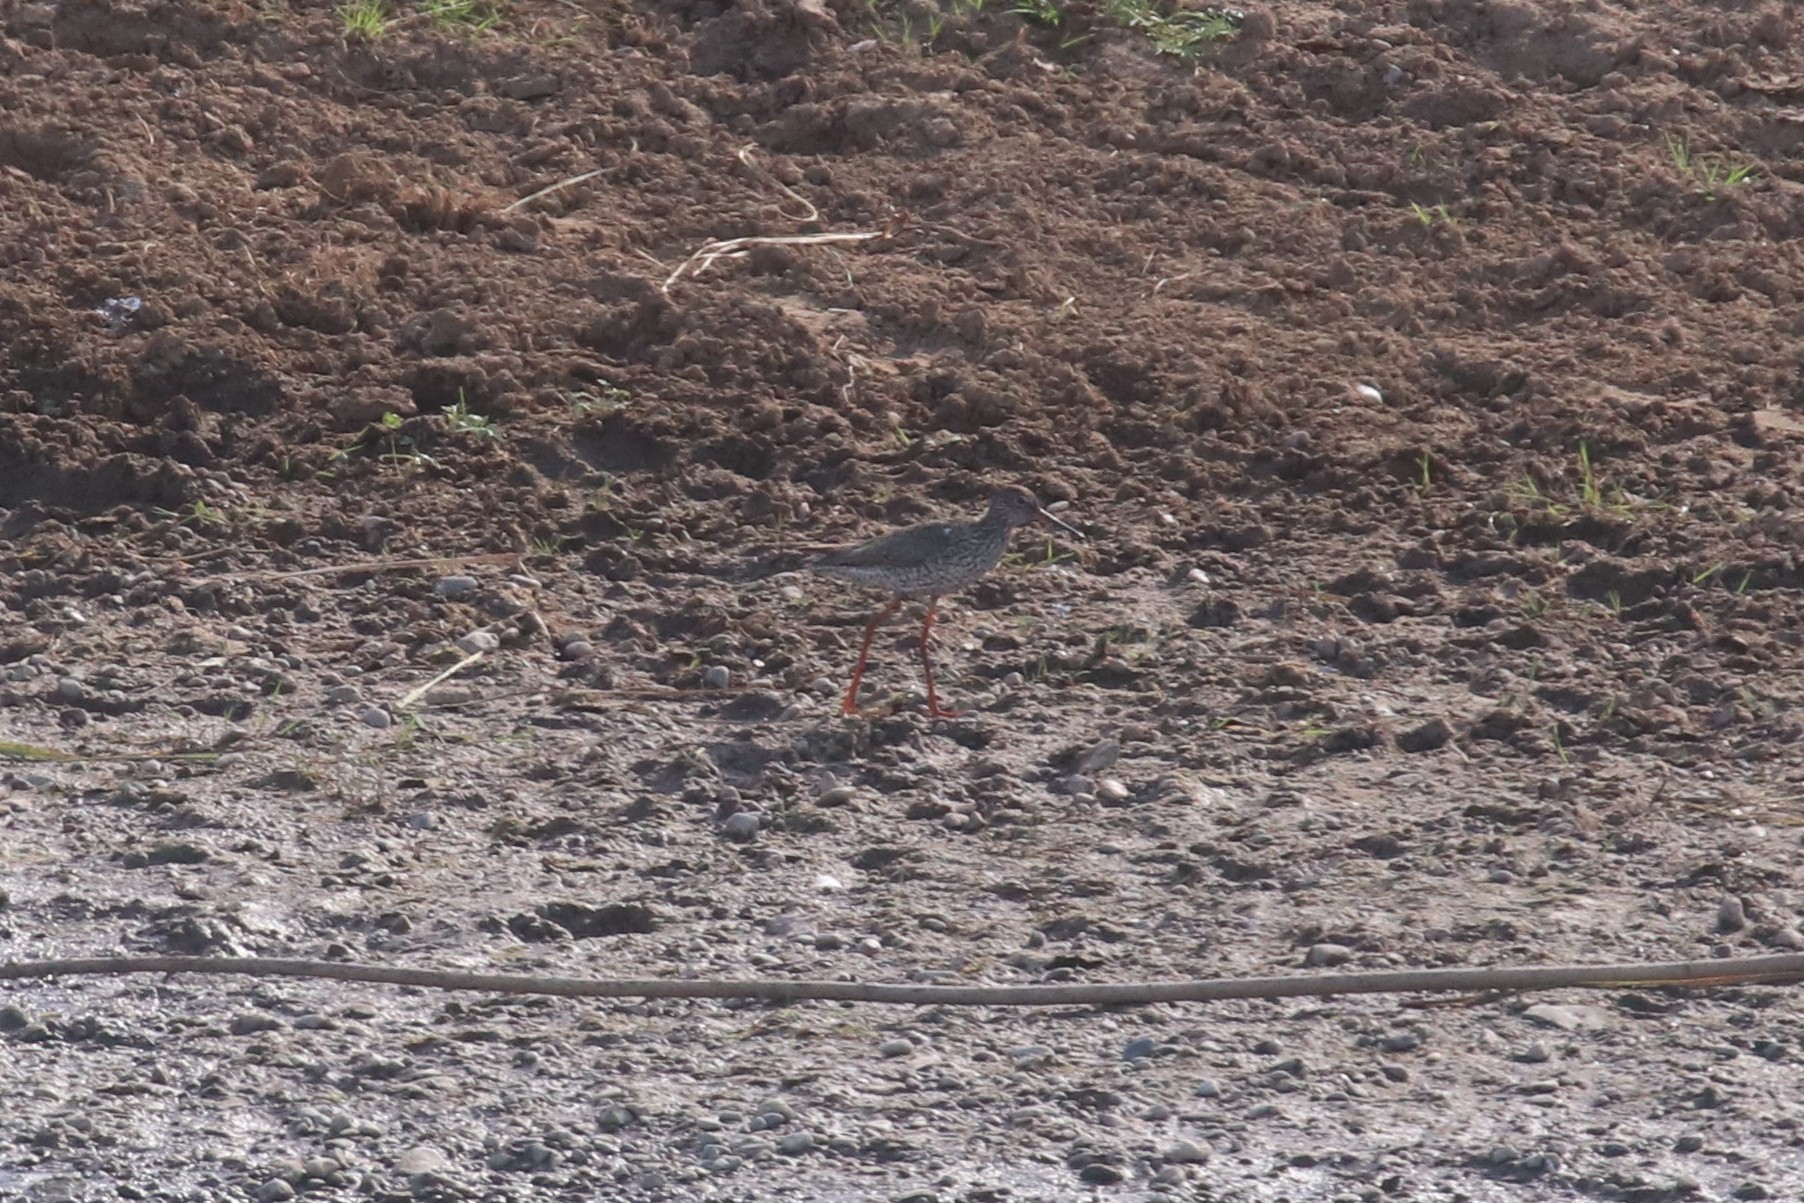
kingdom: Animalia
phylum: Chordata
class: Aves
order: Charadriiformes
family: Scolopacidae
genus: Tringa
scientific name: Tringa totanus
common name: Common redshank
